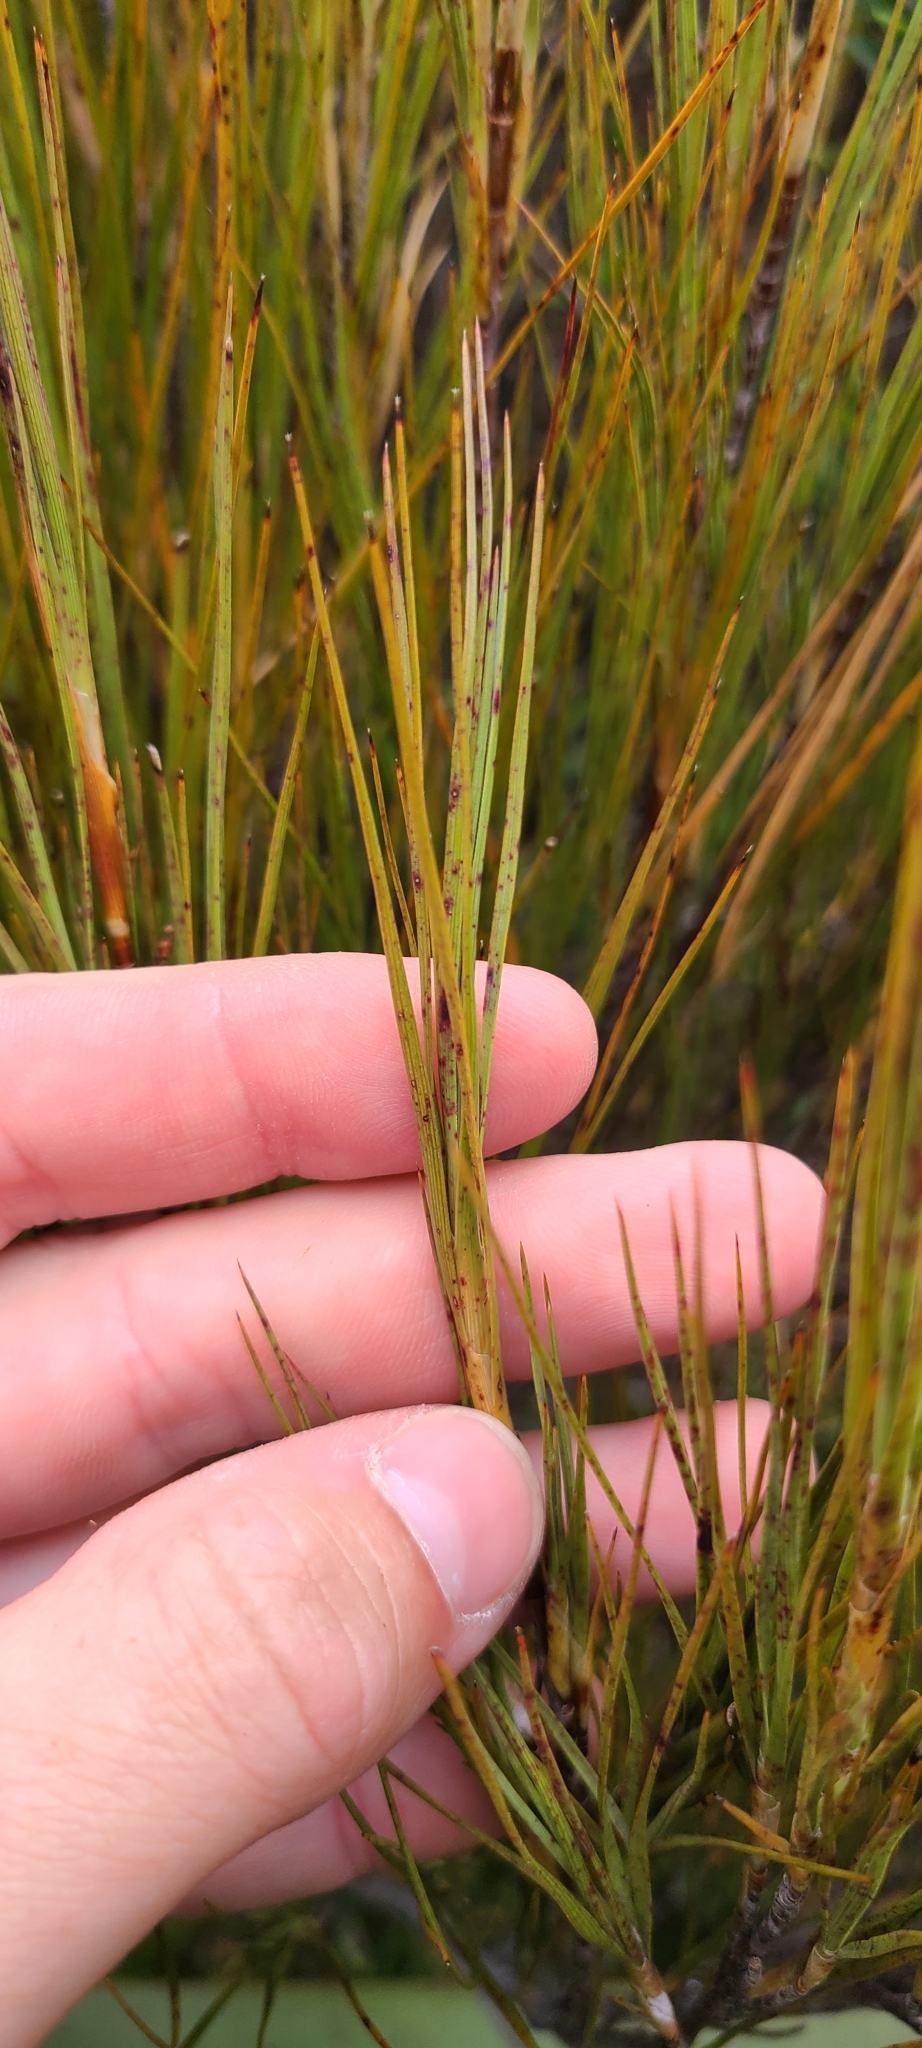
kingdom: Plantae
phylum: Tracheophyta
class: Magnoliopsida
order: Ericales
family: Ericaceae
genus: Dracophyllum
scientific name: Dracophyllum longifolium
